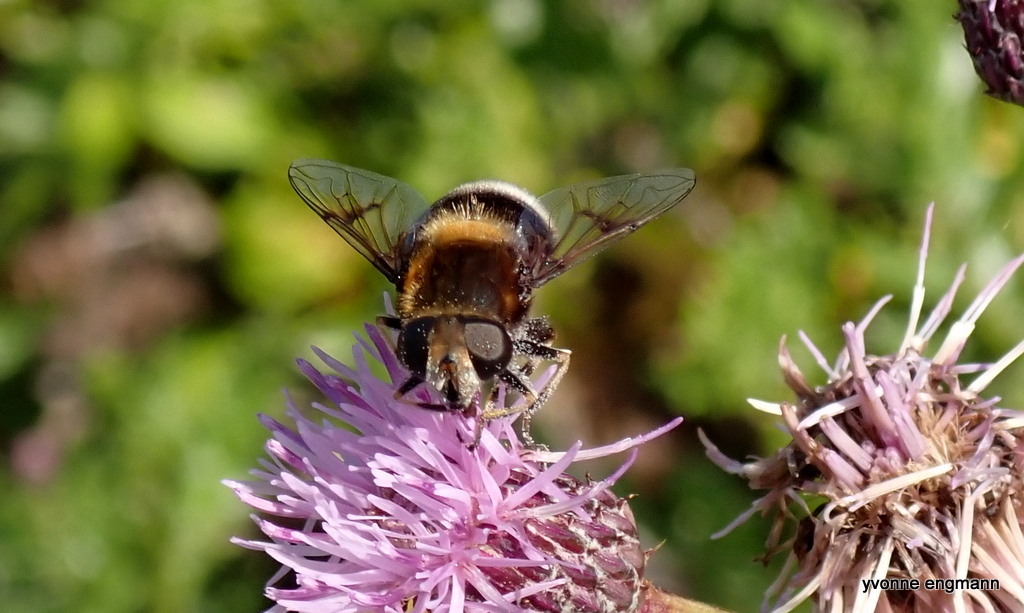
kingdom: Animalia
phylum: Arthropoda
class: Insecta
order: Diptera
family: Syrphidae
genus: Eristalis
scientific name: Eristalis intricaria
